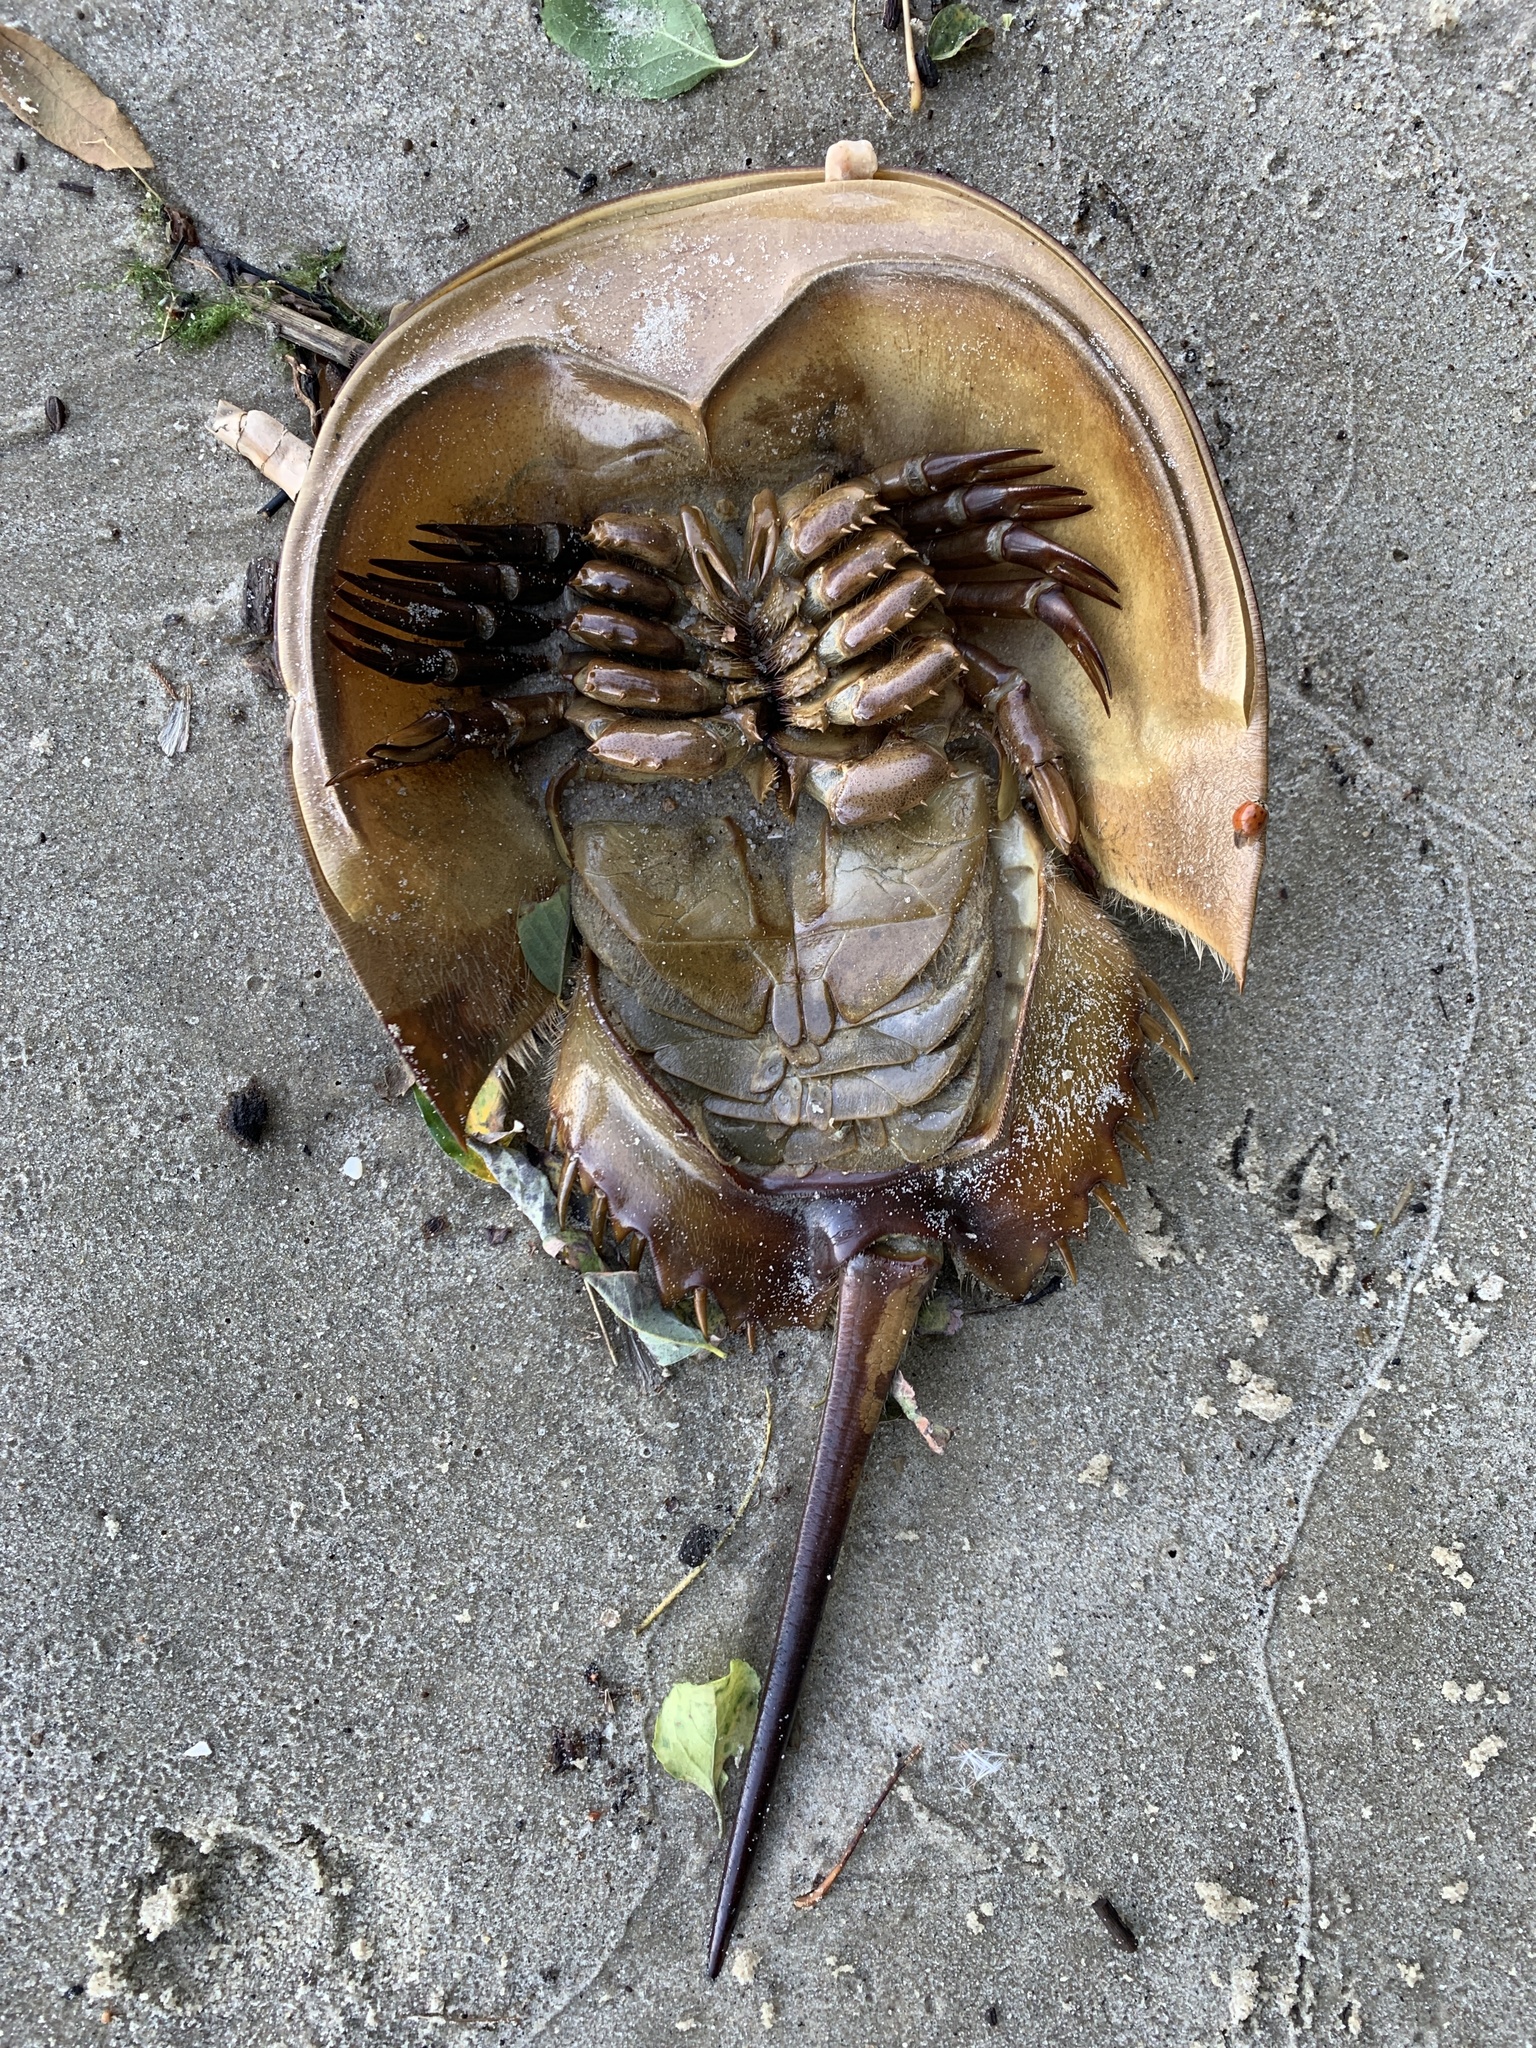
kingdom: Animalia
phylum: Arthropoda
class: Merostomata
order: Xiphosurida
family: Limulidae
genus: Limulus
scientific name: Limulus polyphemus
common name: Horseshoe crab
